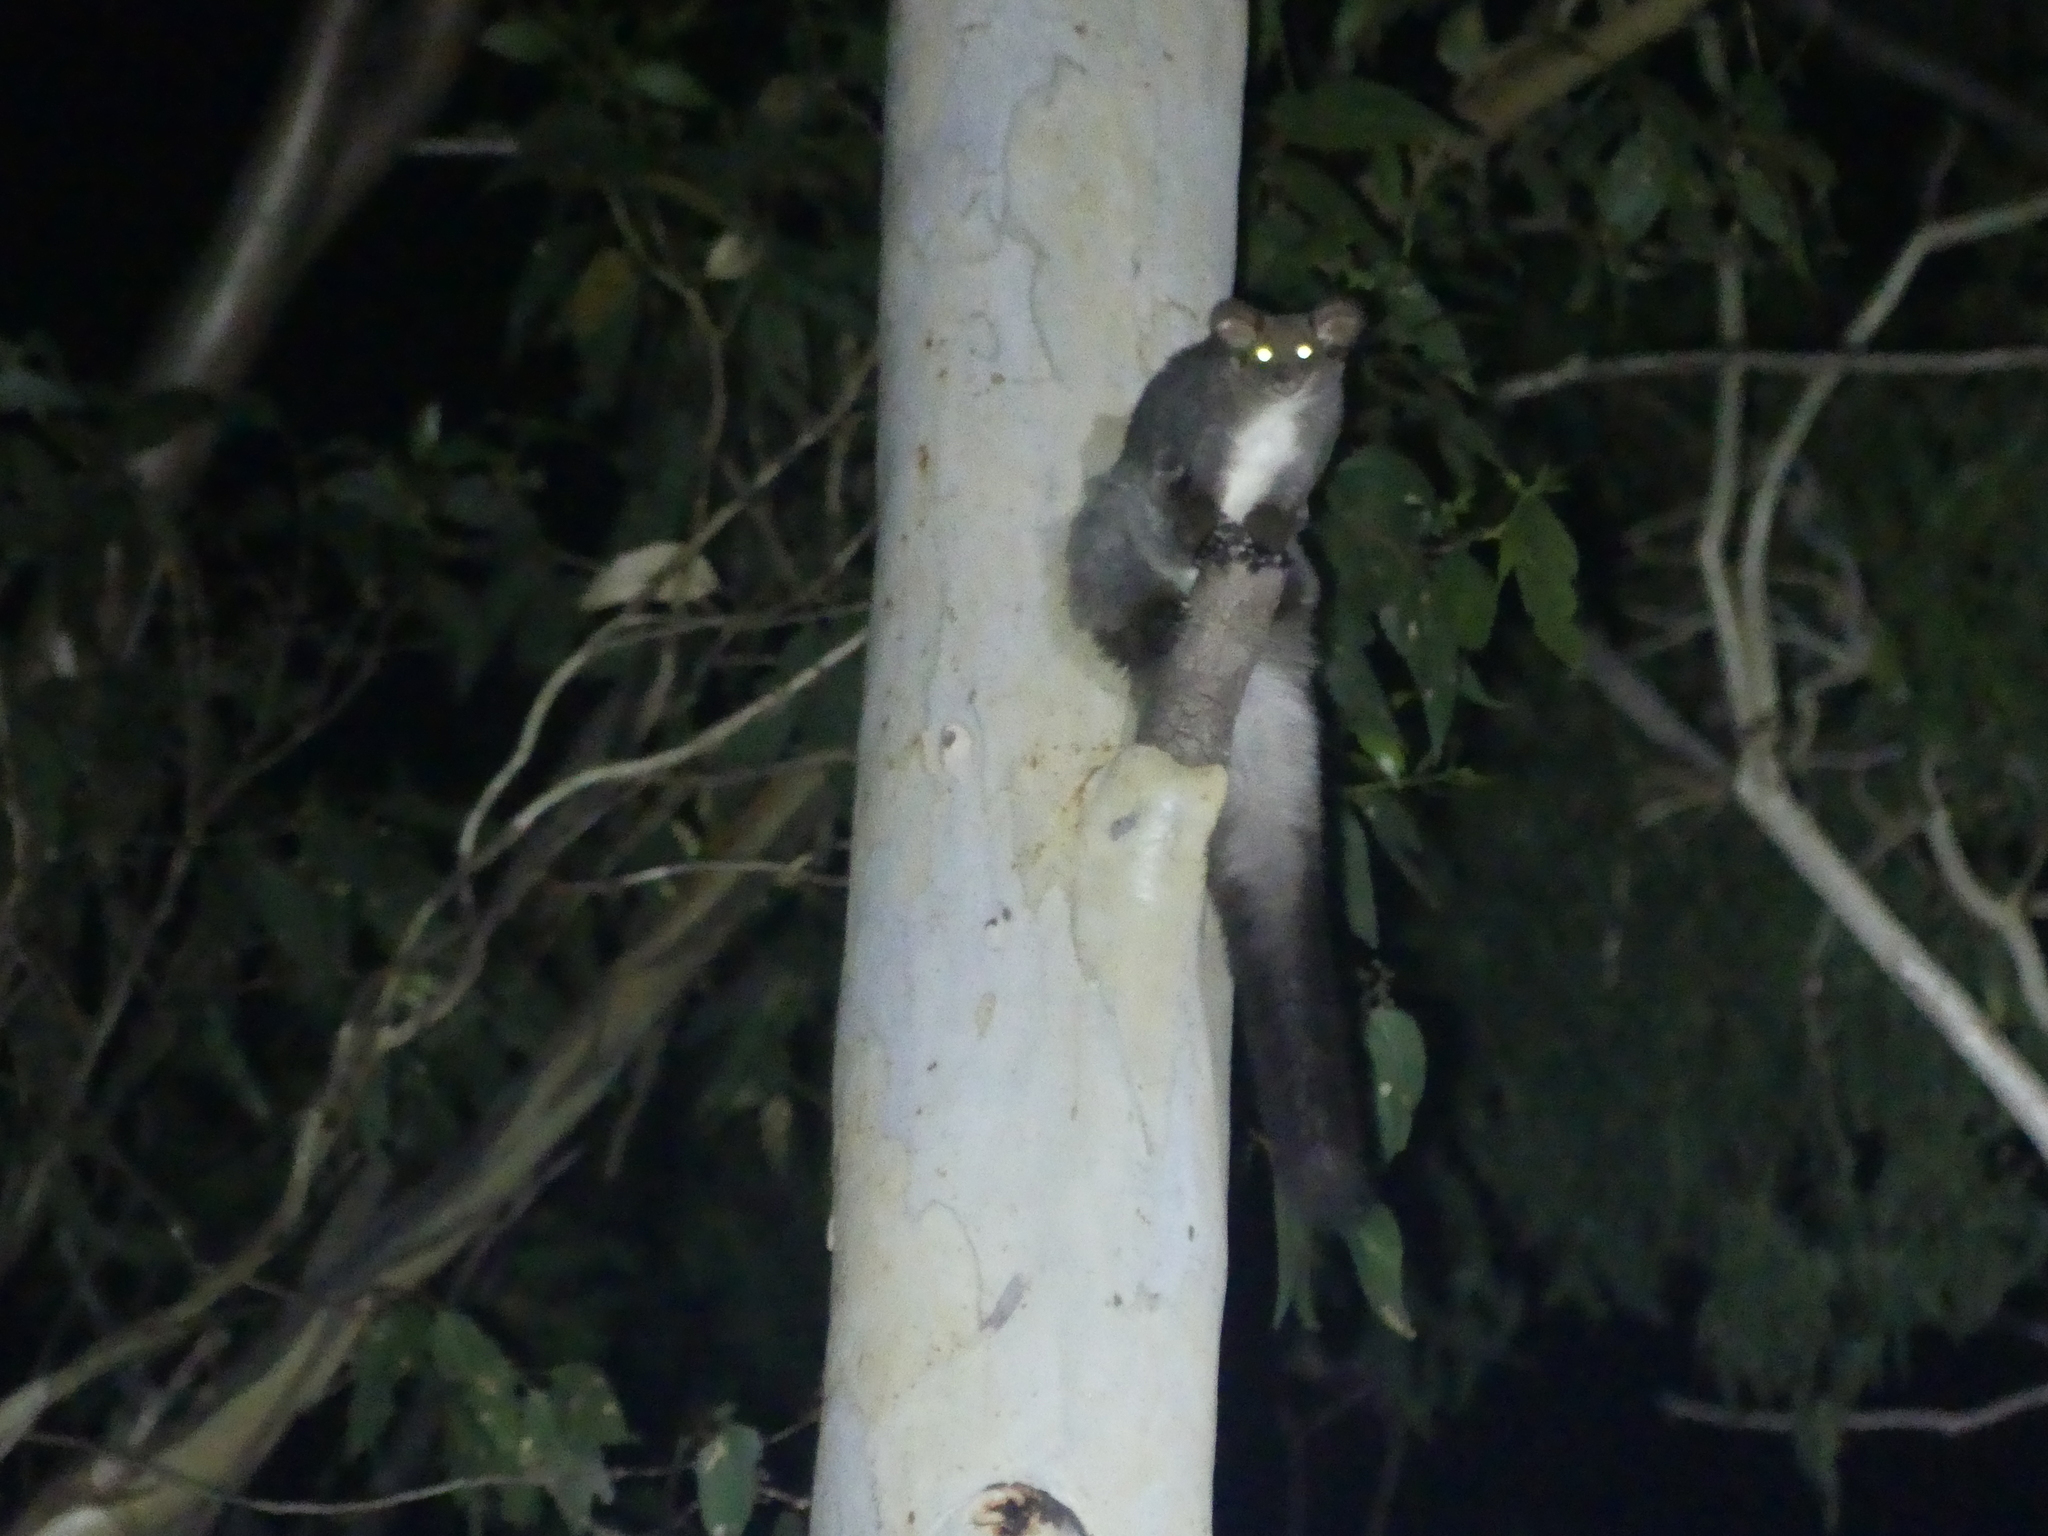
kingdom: Animalia
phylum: Chordata
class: Mammalia
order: Diprotodontia
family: Pseudocheiridae
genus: Petauroides
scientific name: Petauroides volans
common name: Greater glider
